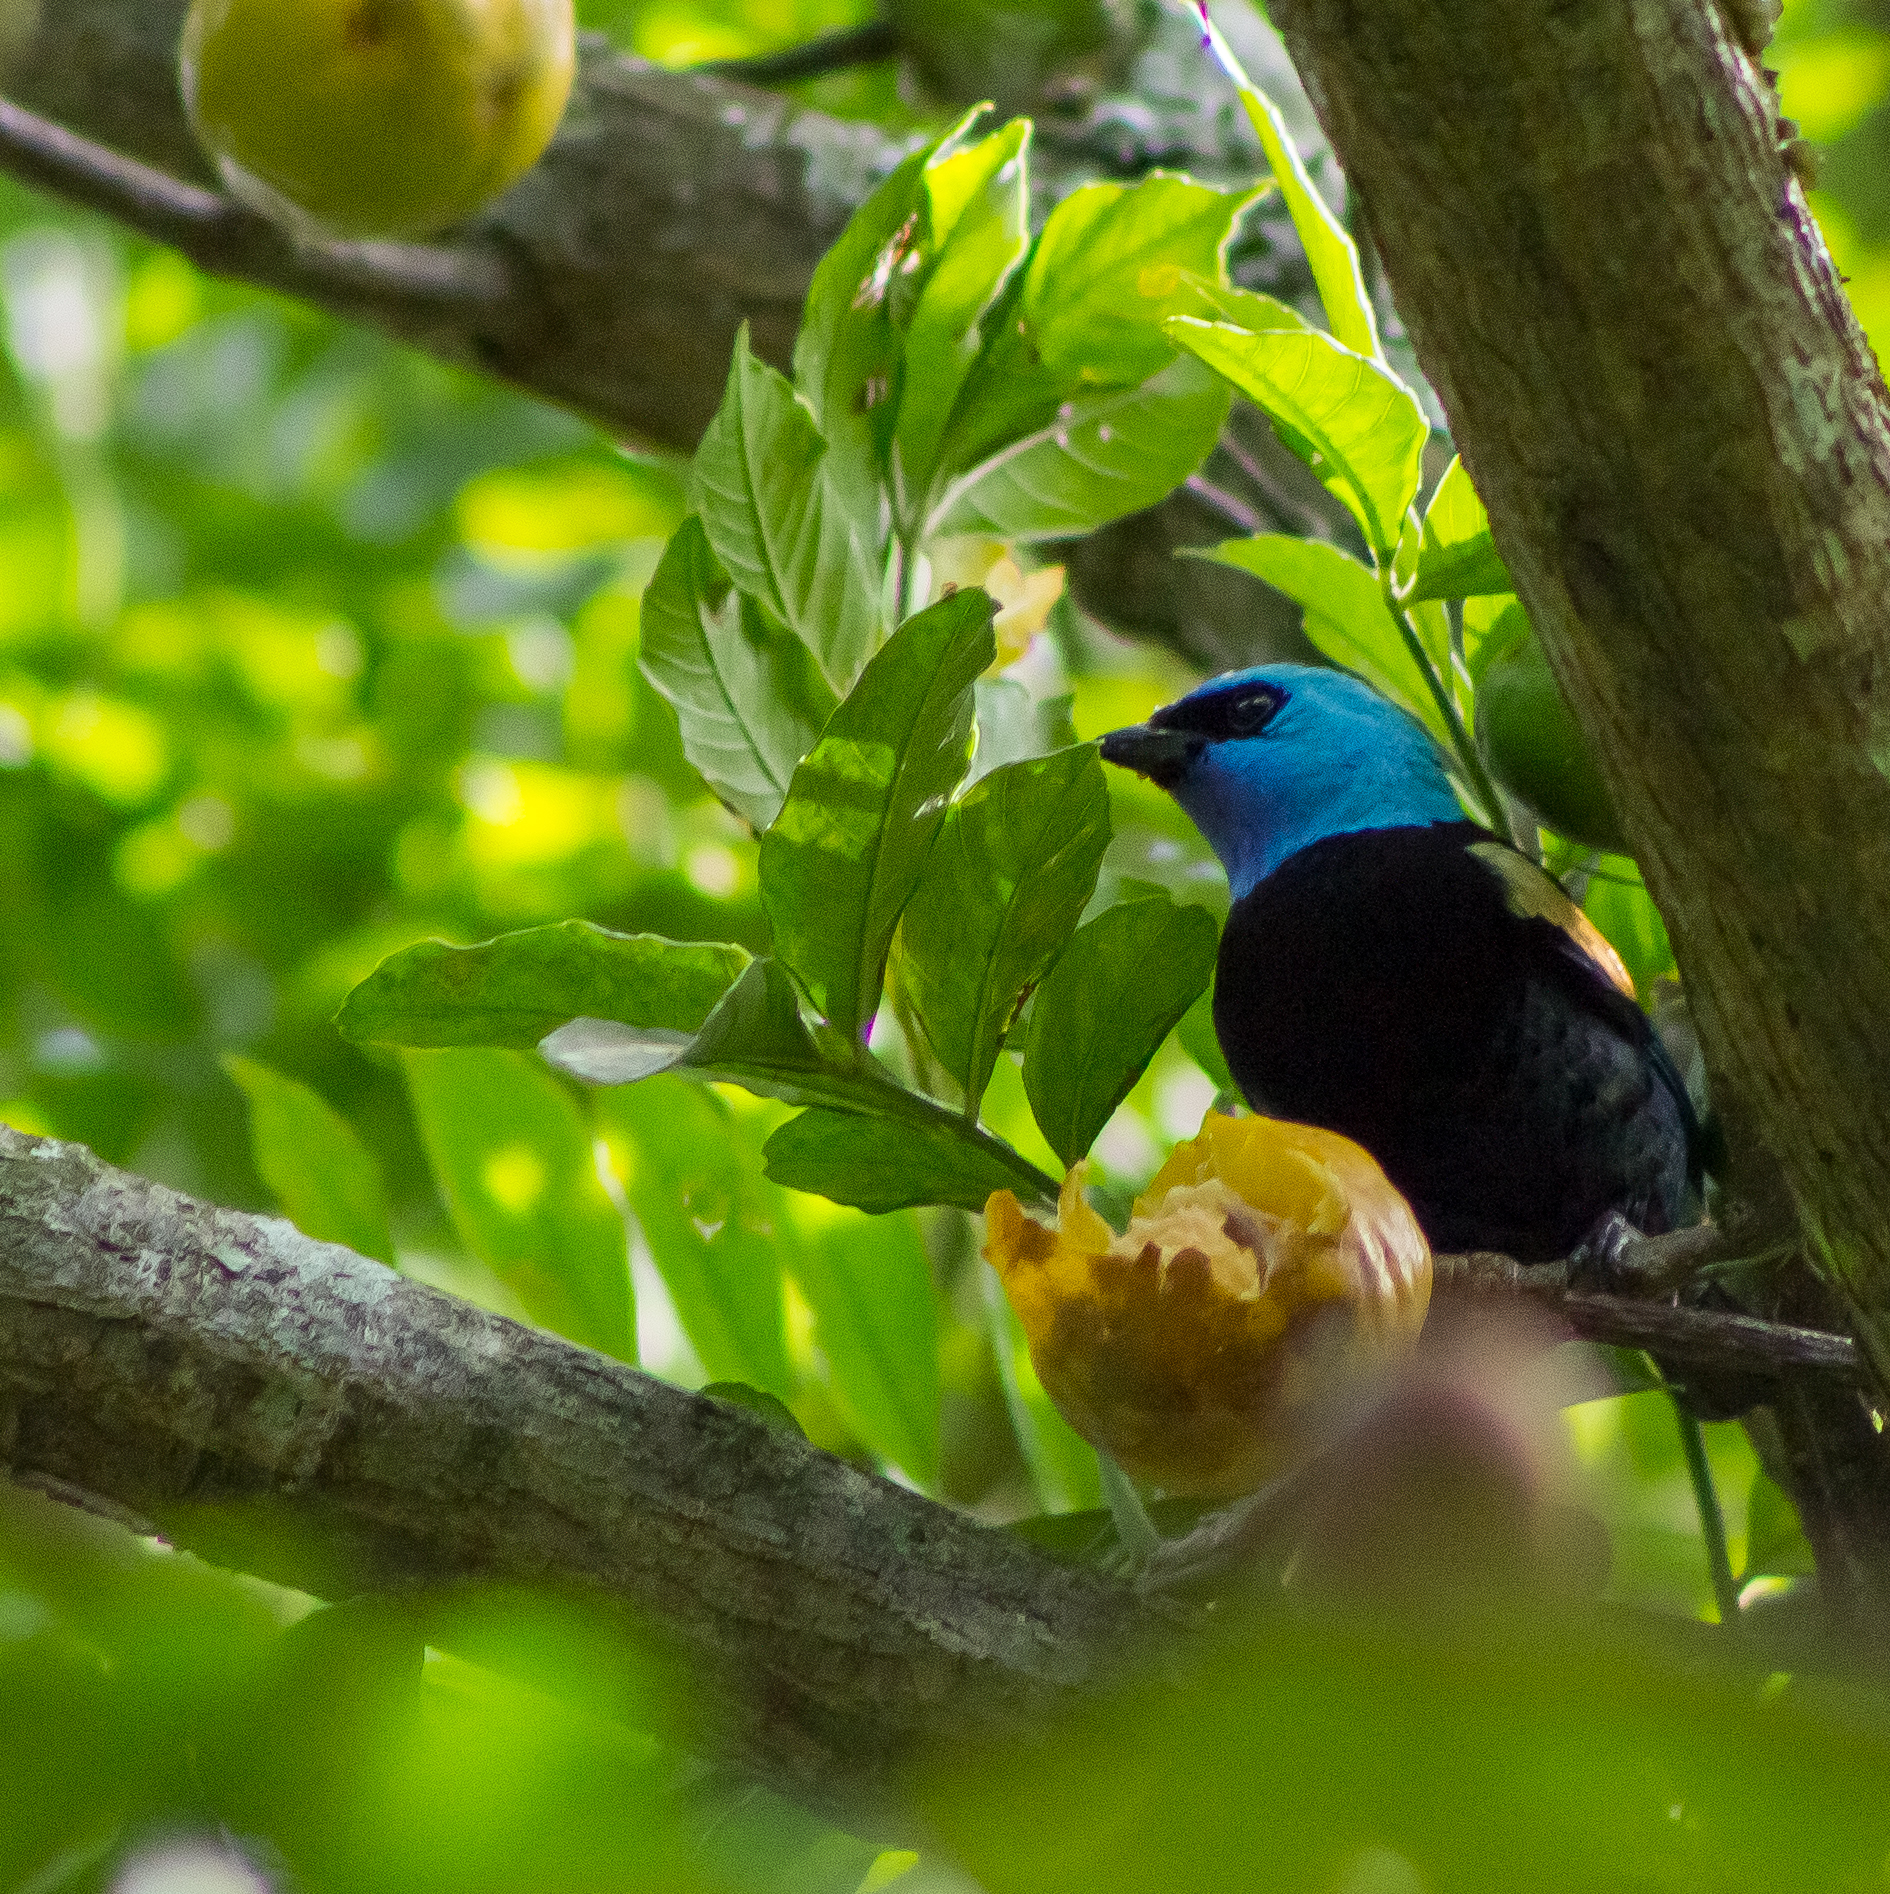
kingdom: Animalia
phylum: Chordata
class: Aves
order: Passeriformes
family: Thraupidae
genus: Stilpnia
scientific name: Stilpnia cyanicollis
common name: Blue-necked tanager
